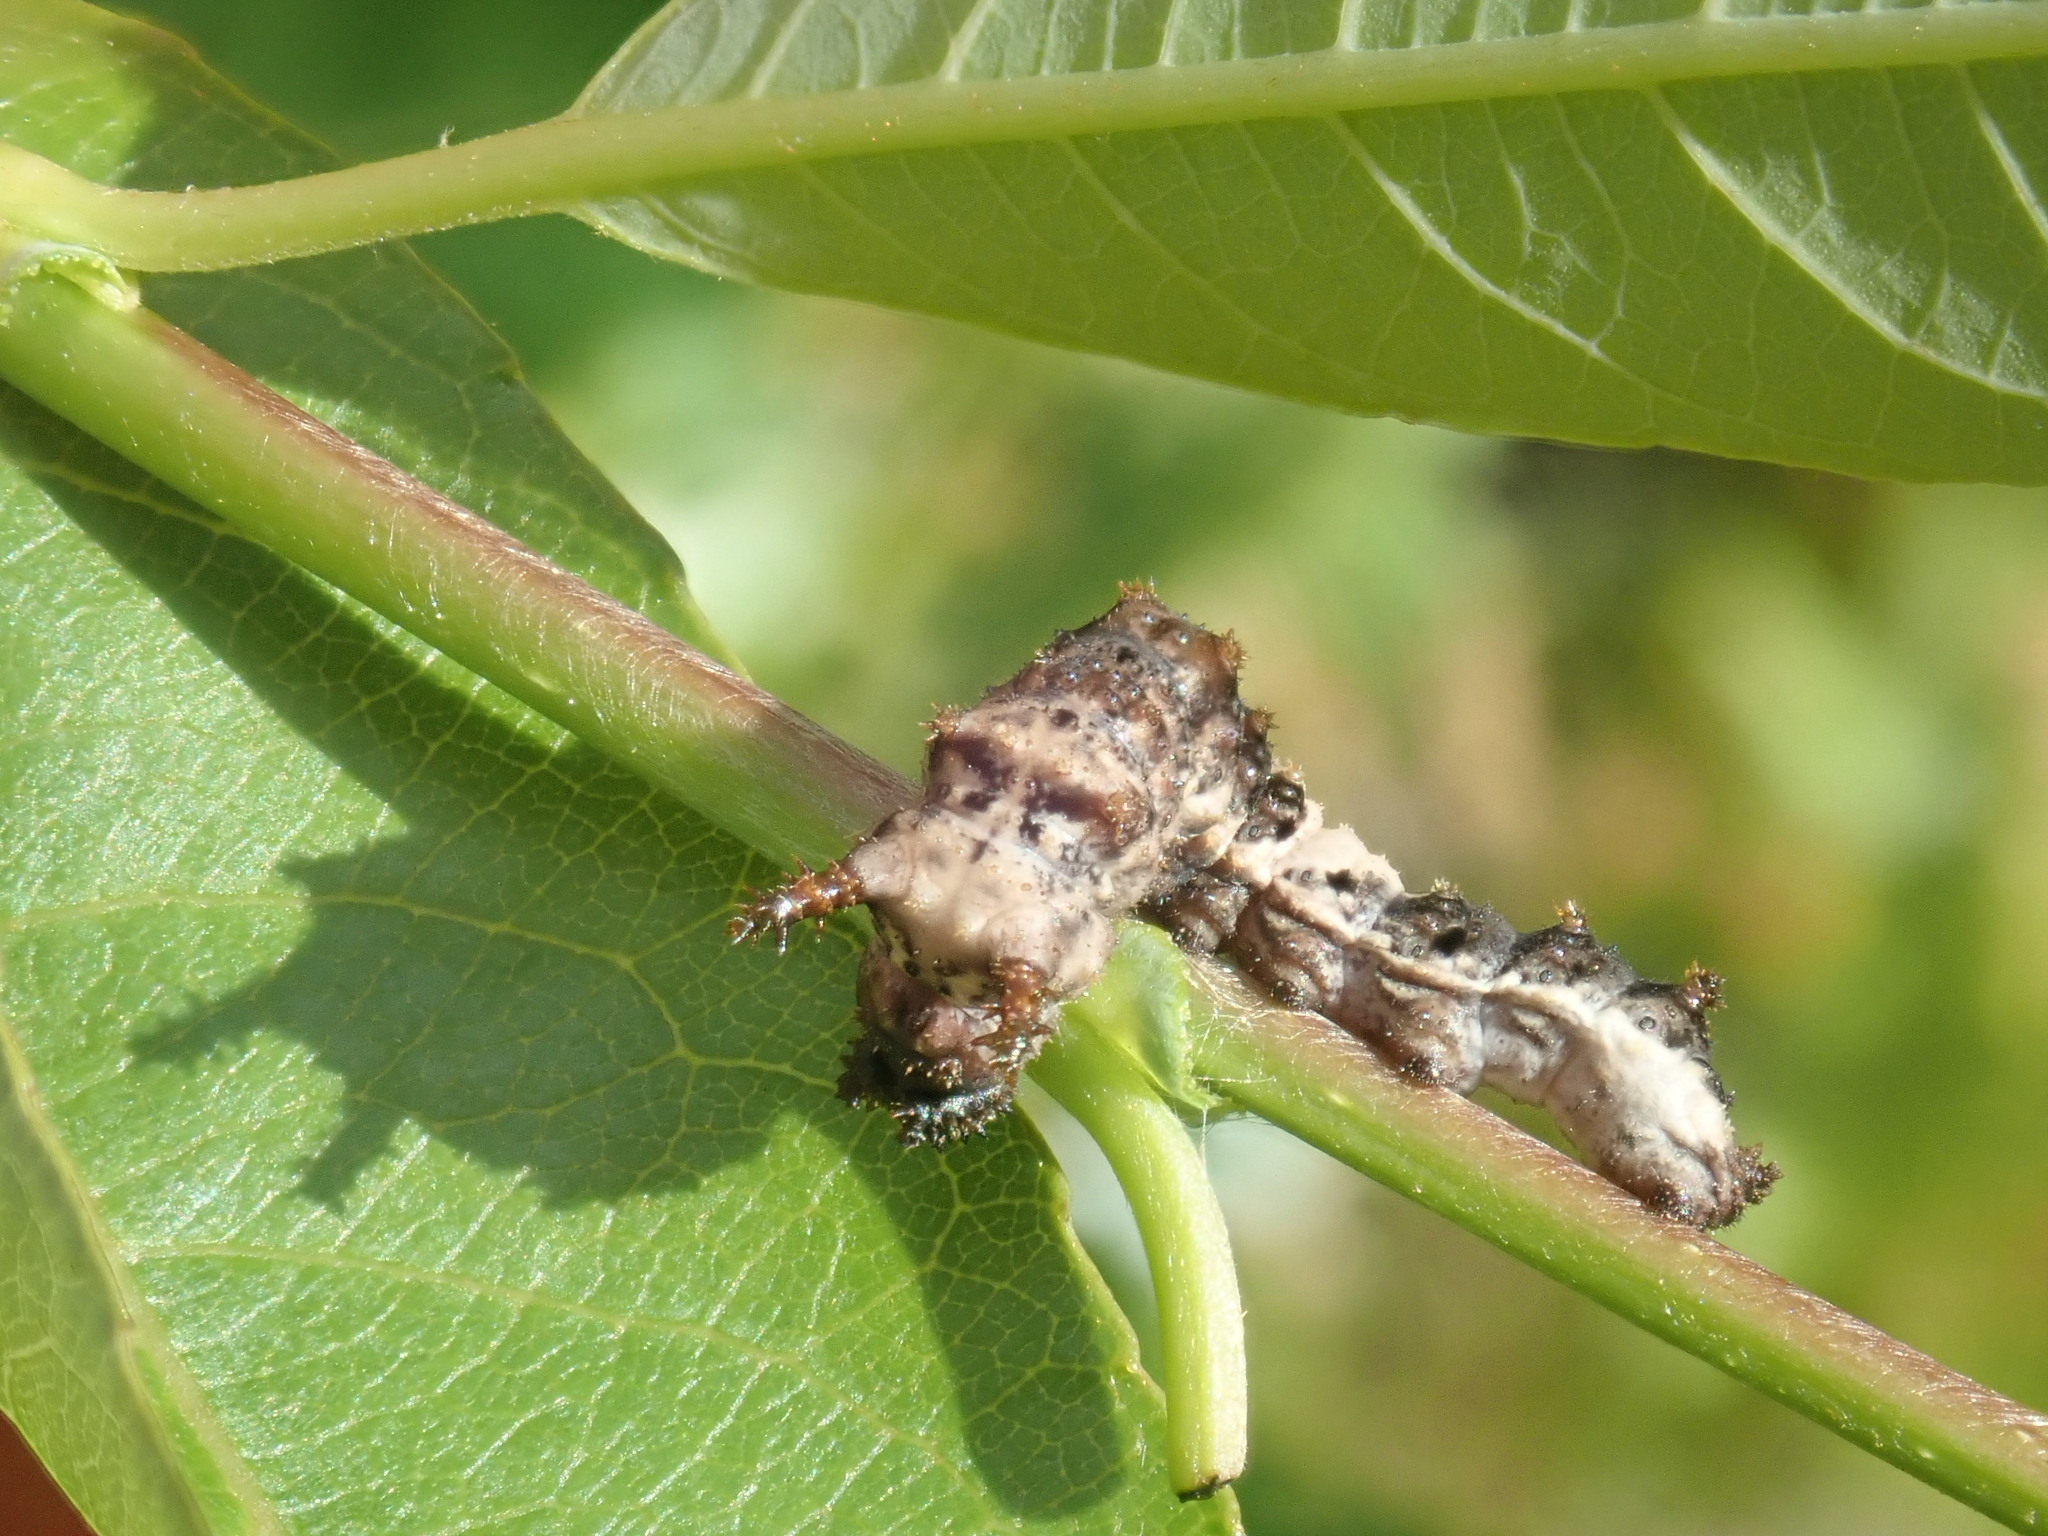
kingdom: Animalia
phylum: Arthropoda
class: Insecta
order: Lepidoptera
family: Nymphalidae
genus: Limenitis
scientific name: Limenitis archippus
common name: Viceroy
